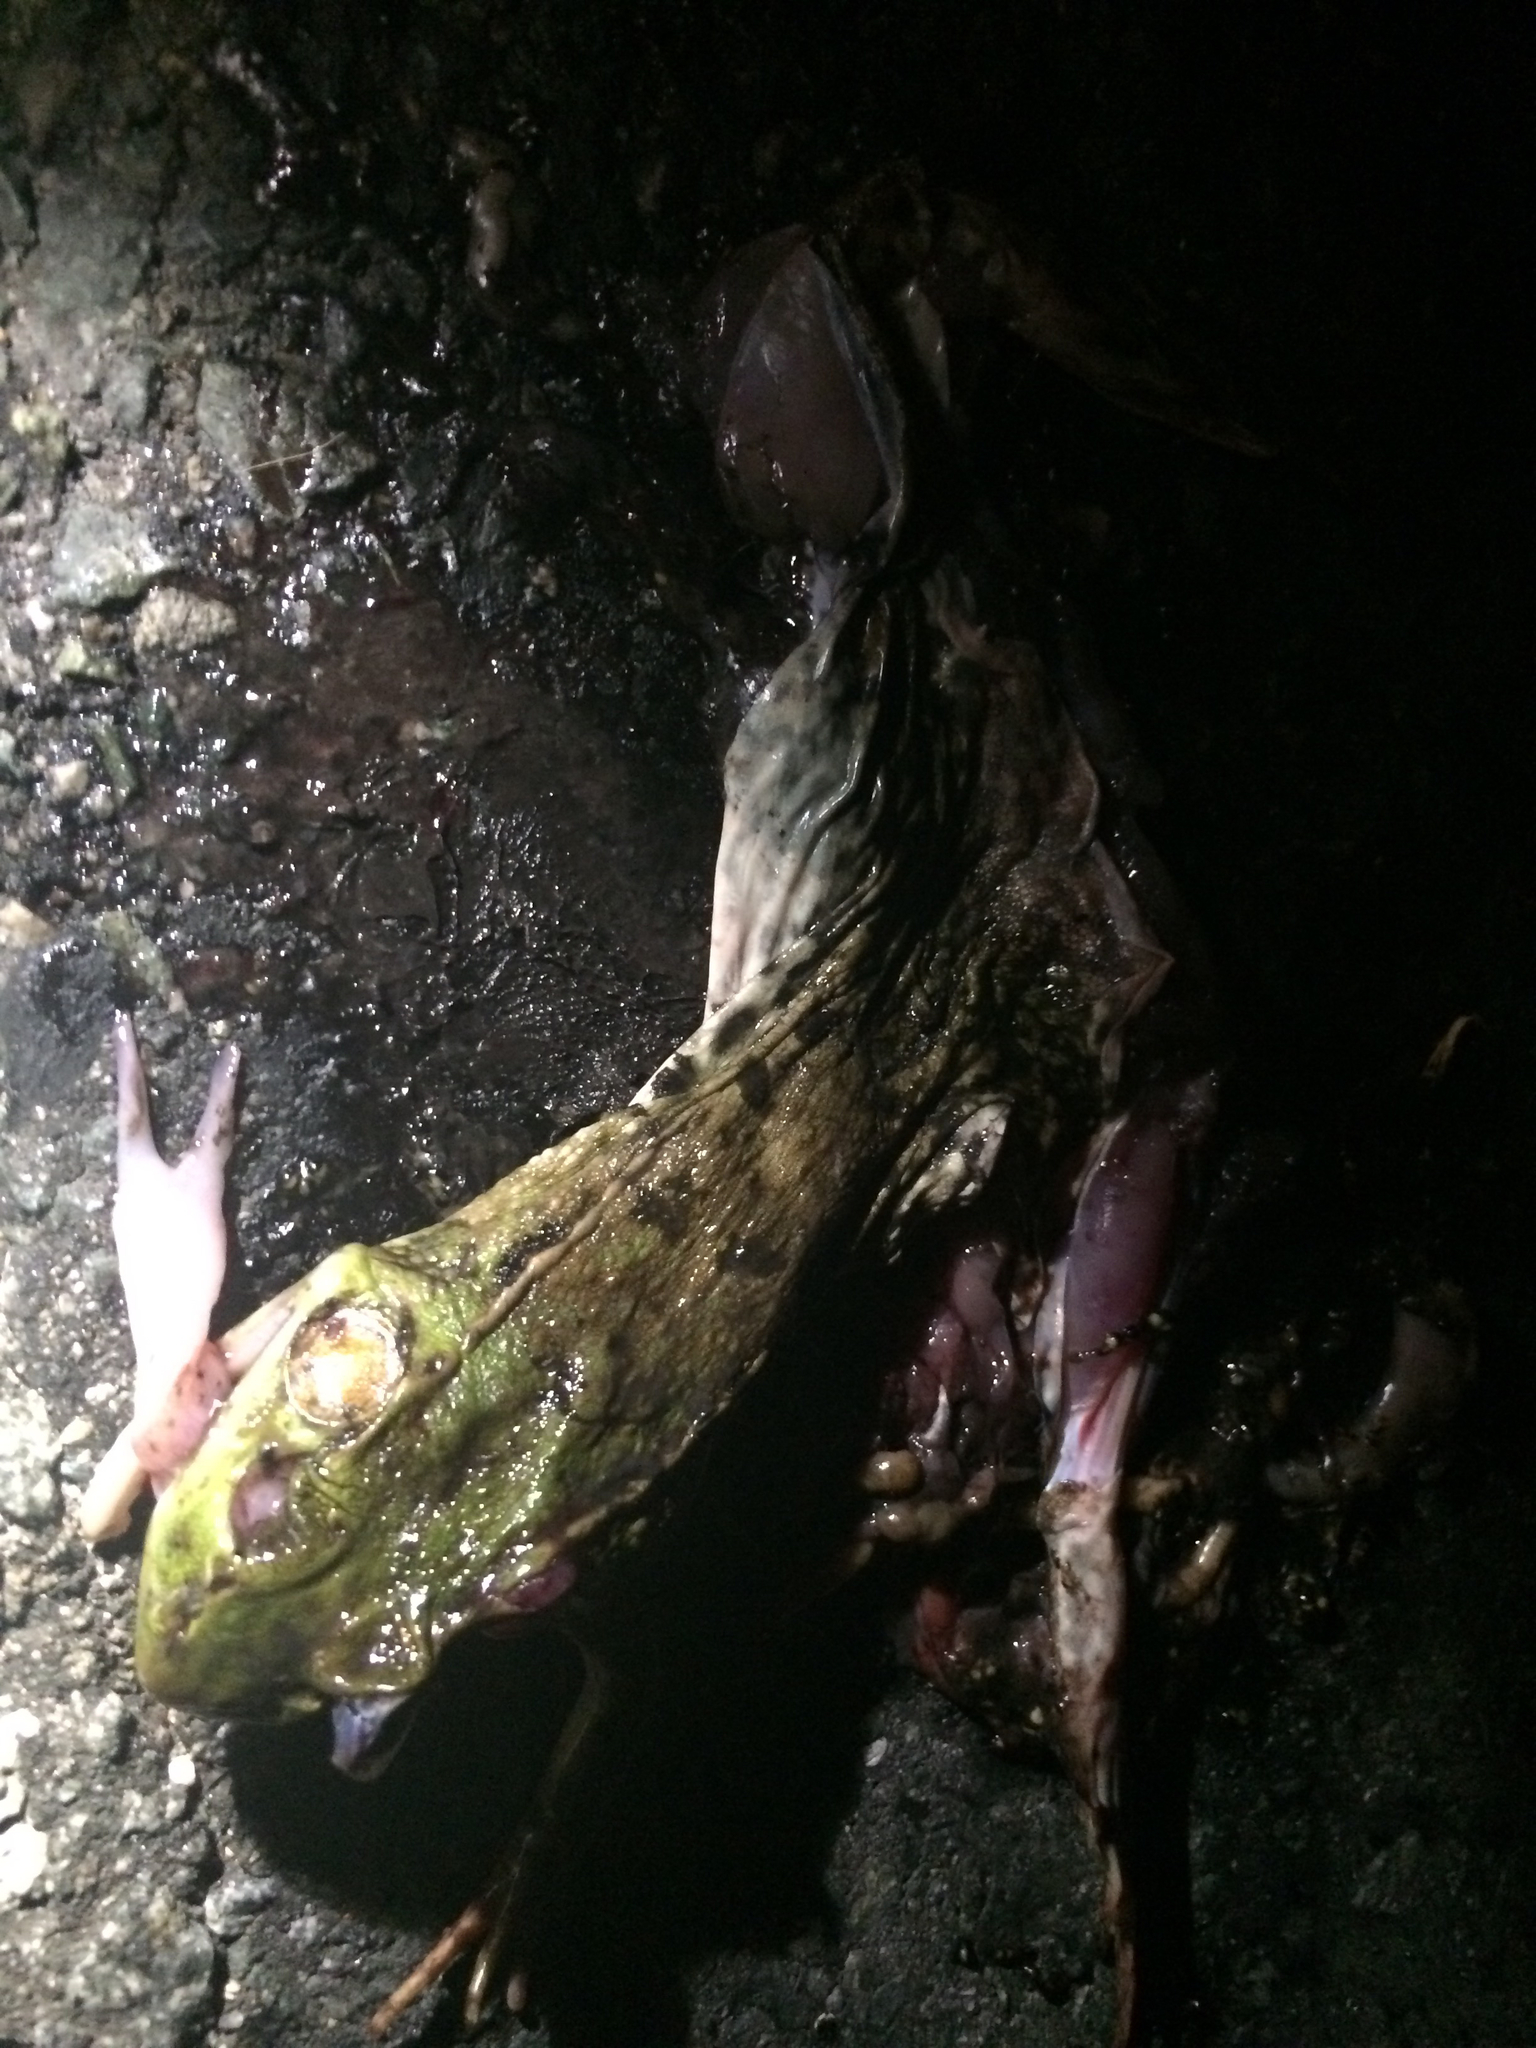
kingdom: Animalia
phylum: Chordata
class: Amphibia
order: Anura
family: Ranidae
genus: Lithobates
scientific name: Lithobates clamitans
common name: Green frog
